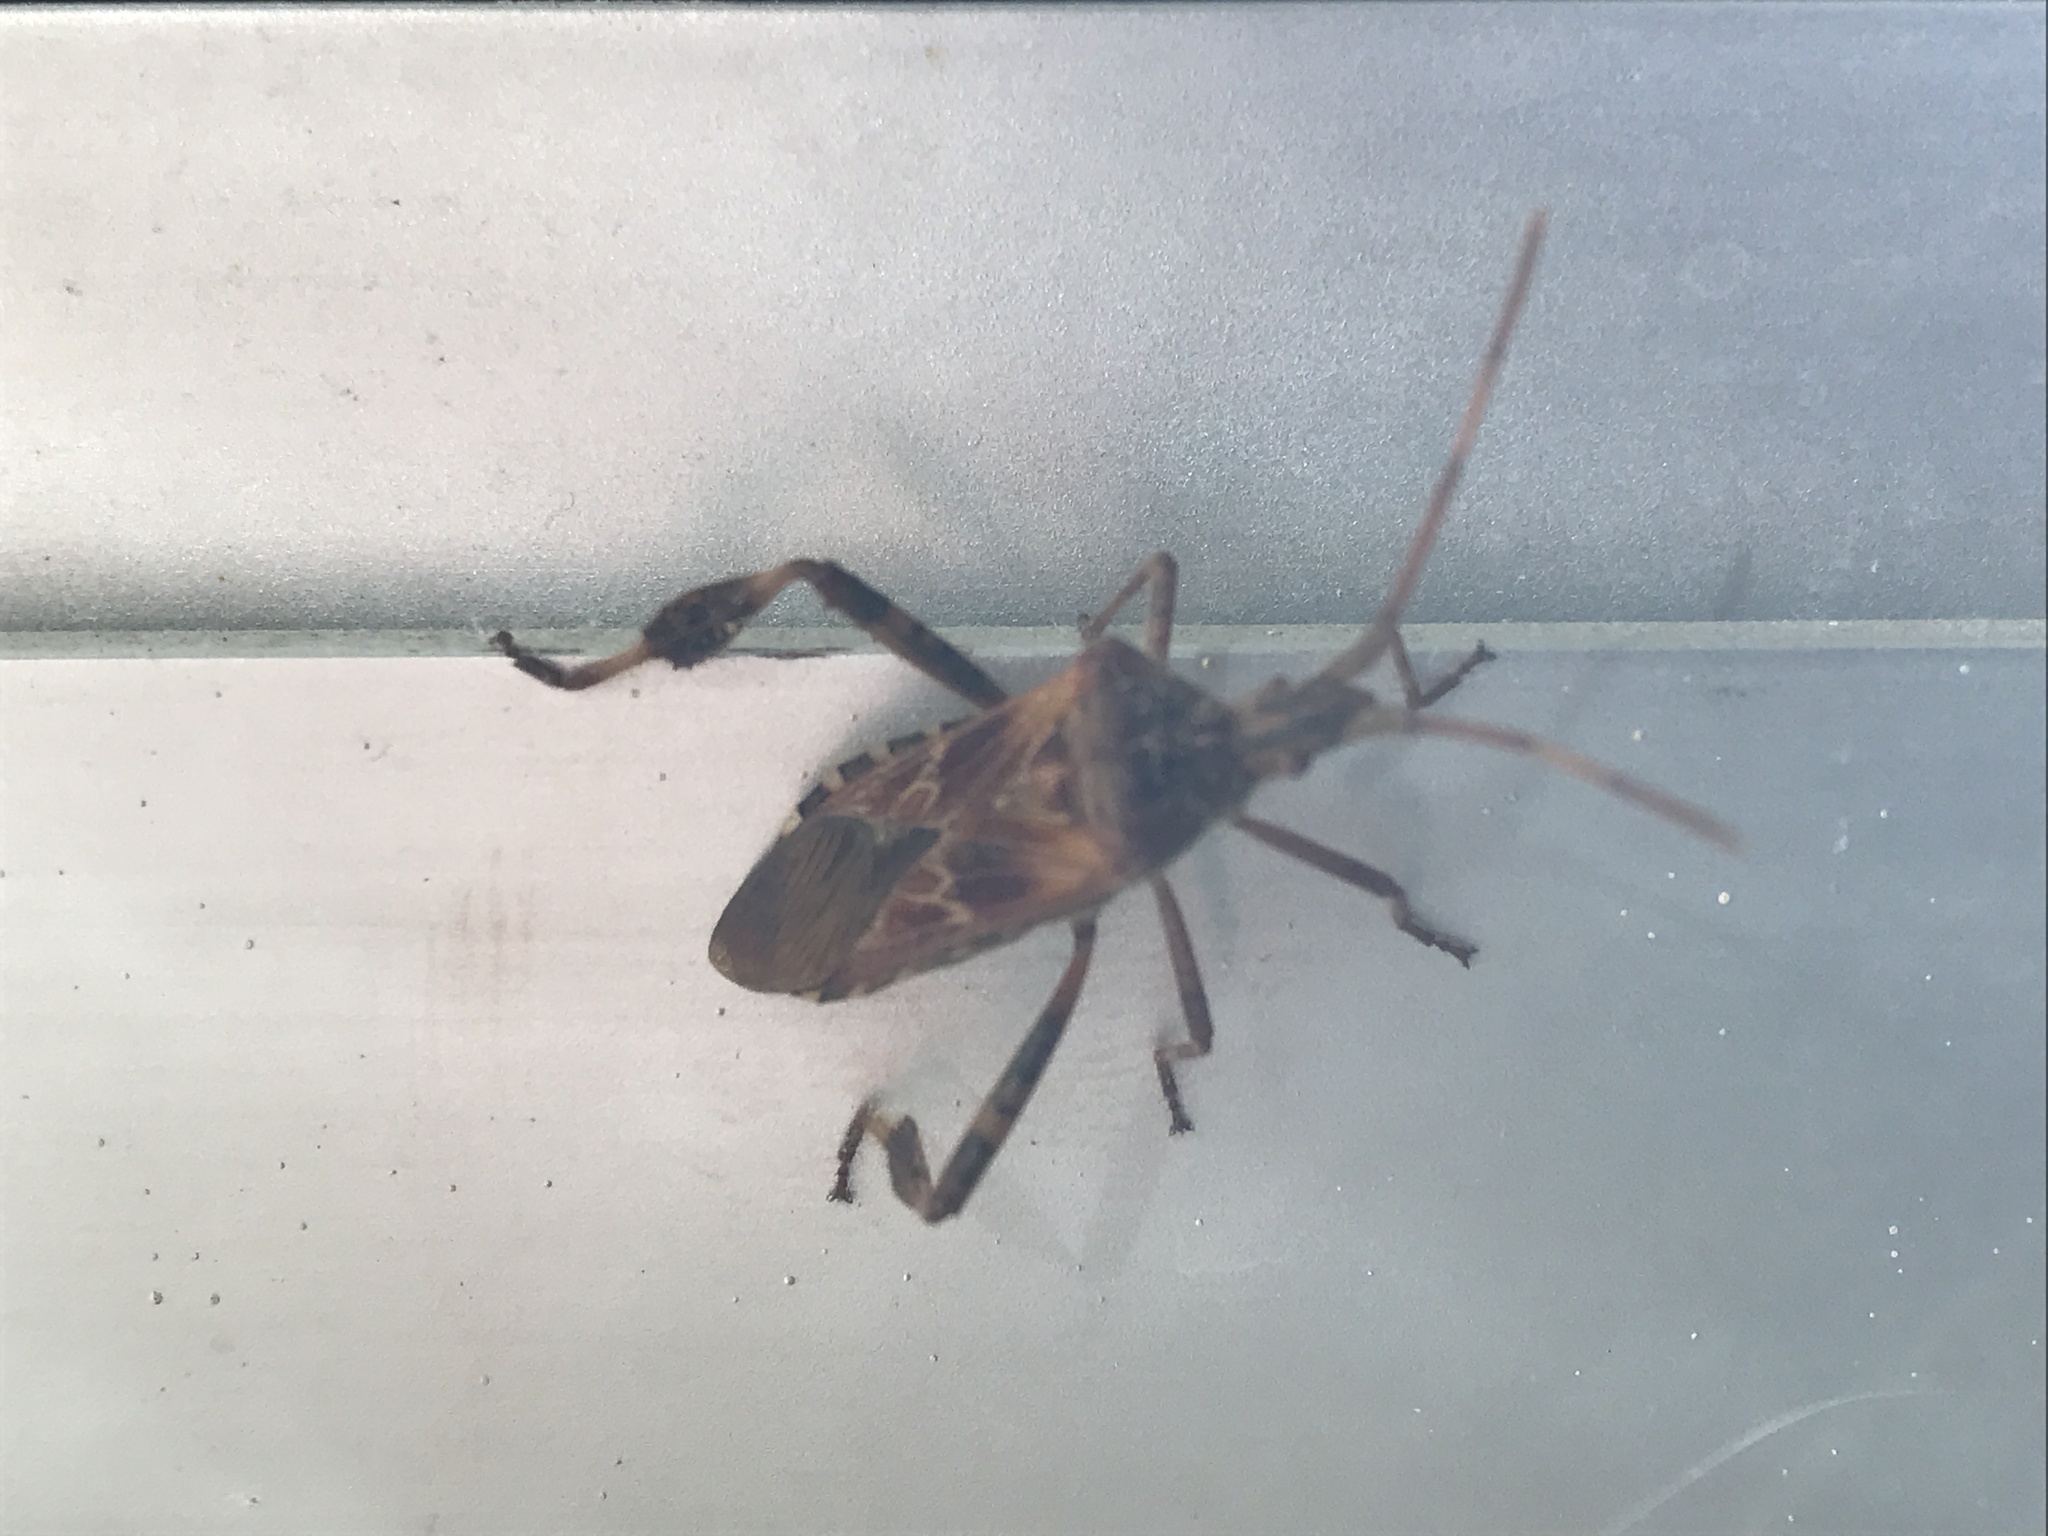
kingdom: Animalia
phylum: Arthropoda
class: Insecta
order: Hemiptera
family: Coreidae
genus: Leptoglossus
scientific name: Leptoglossus occidentalis
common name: Western conifer-seed bug
